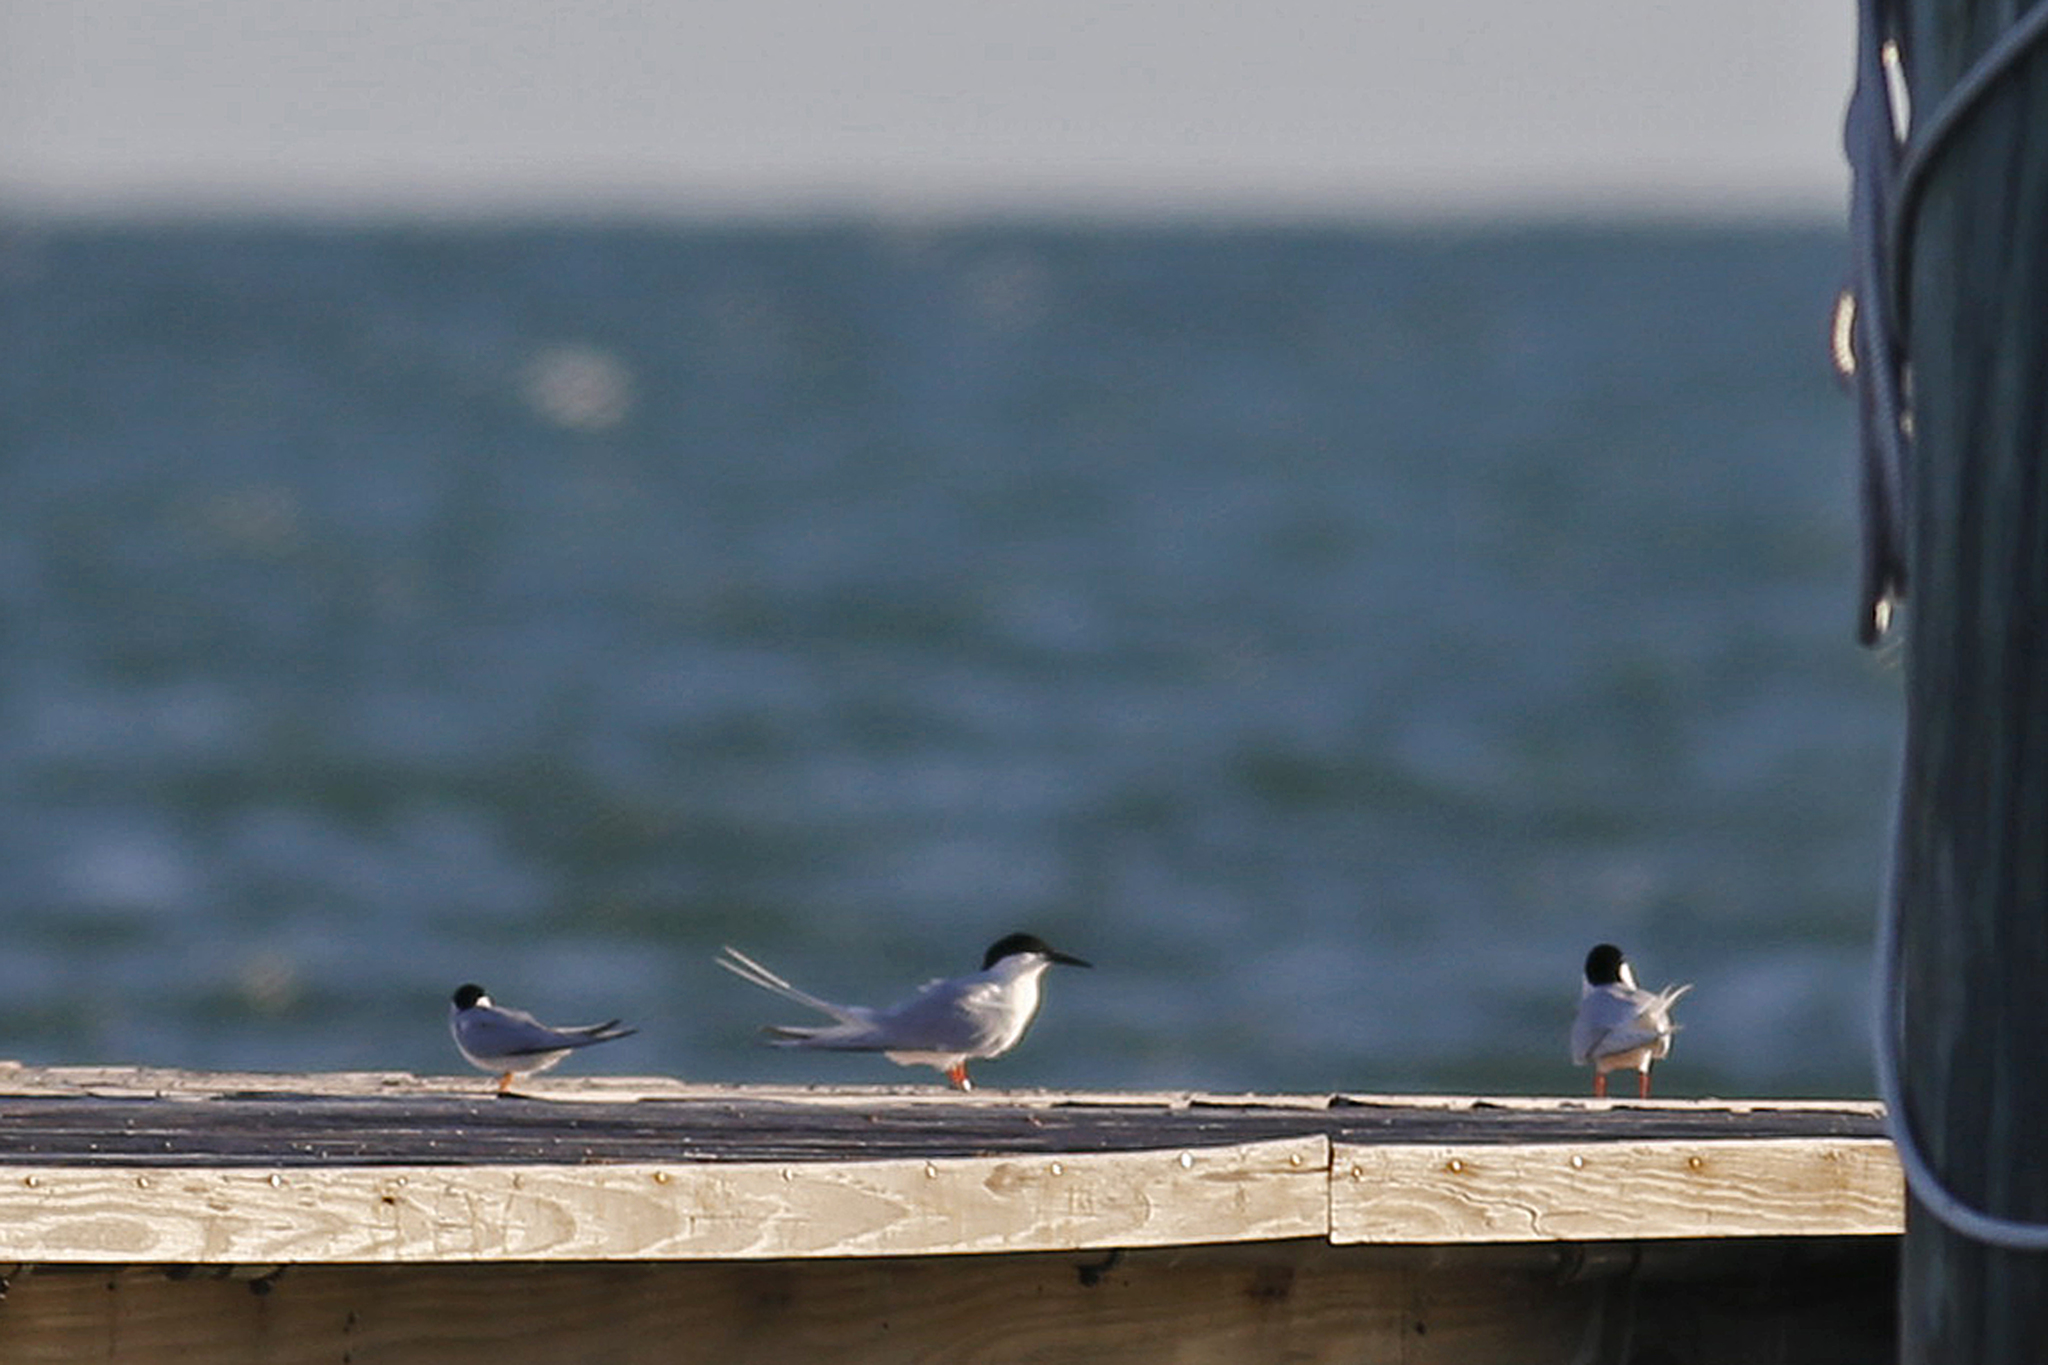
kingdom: Animalia
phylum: Chordata
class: Aves
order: Charadriiformes
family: Laridae
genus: Sterna
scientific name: Sterna dougallii
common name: Roseate tern
